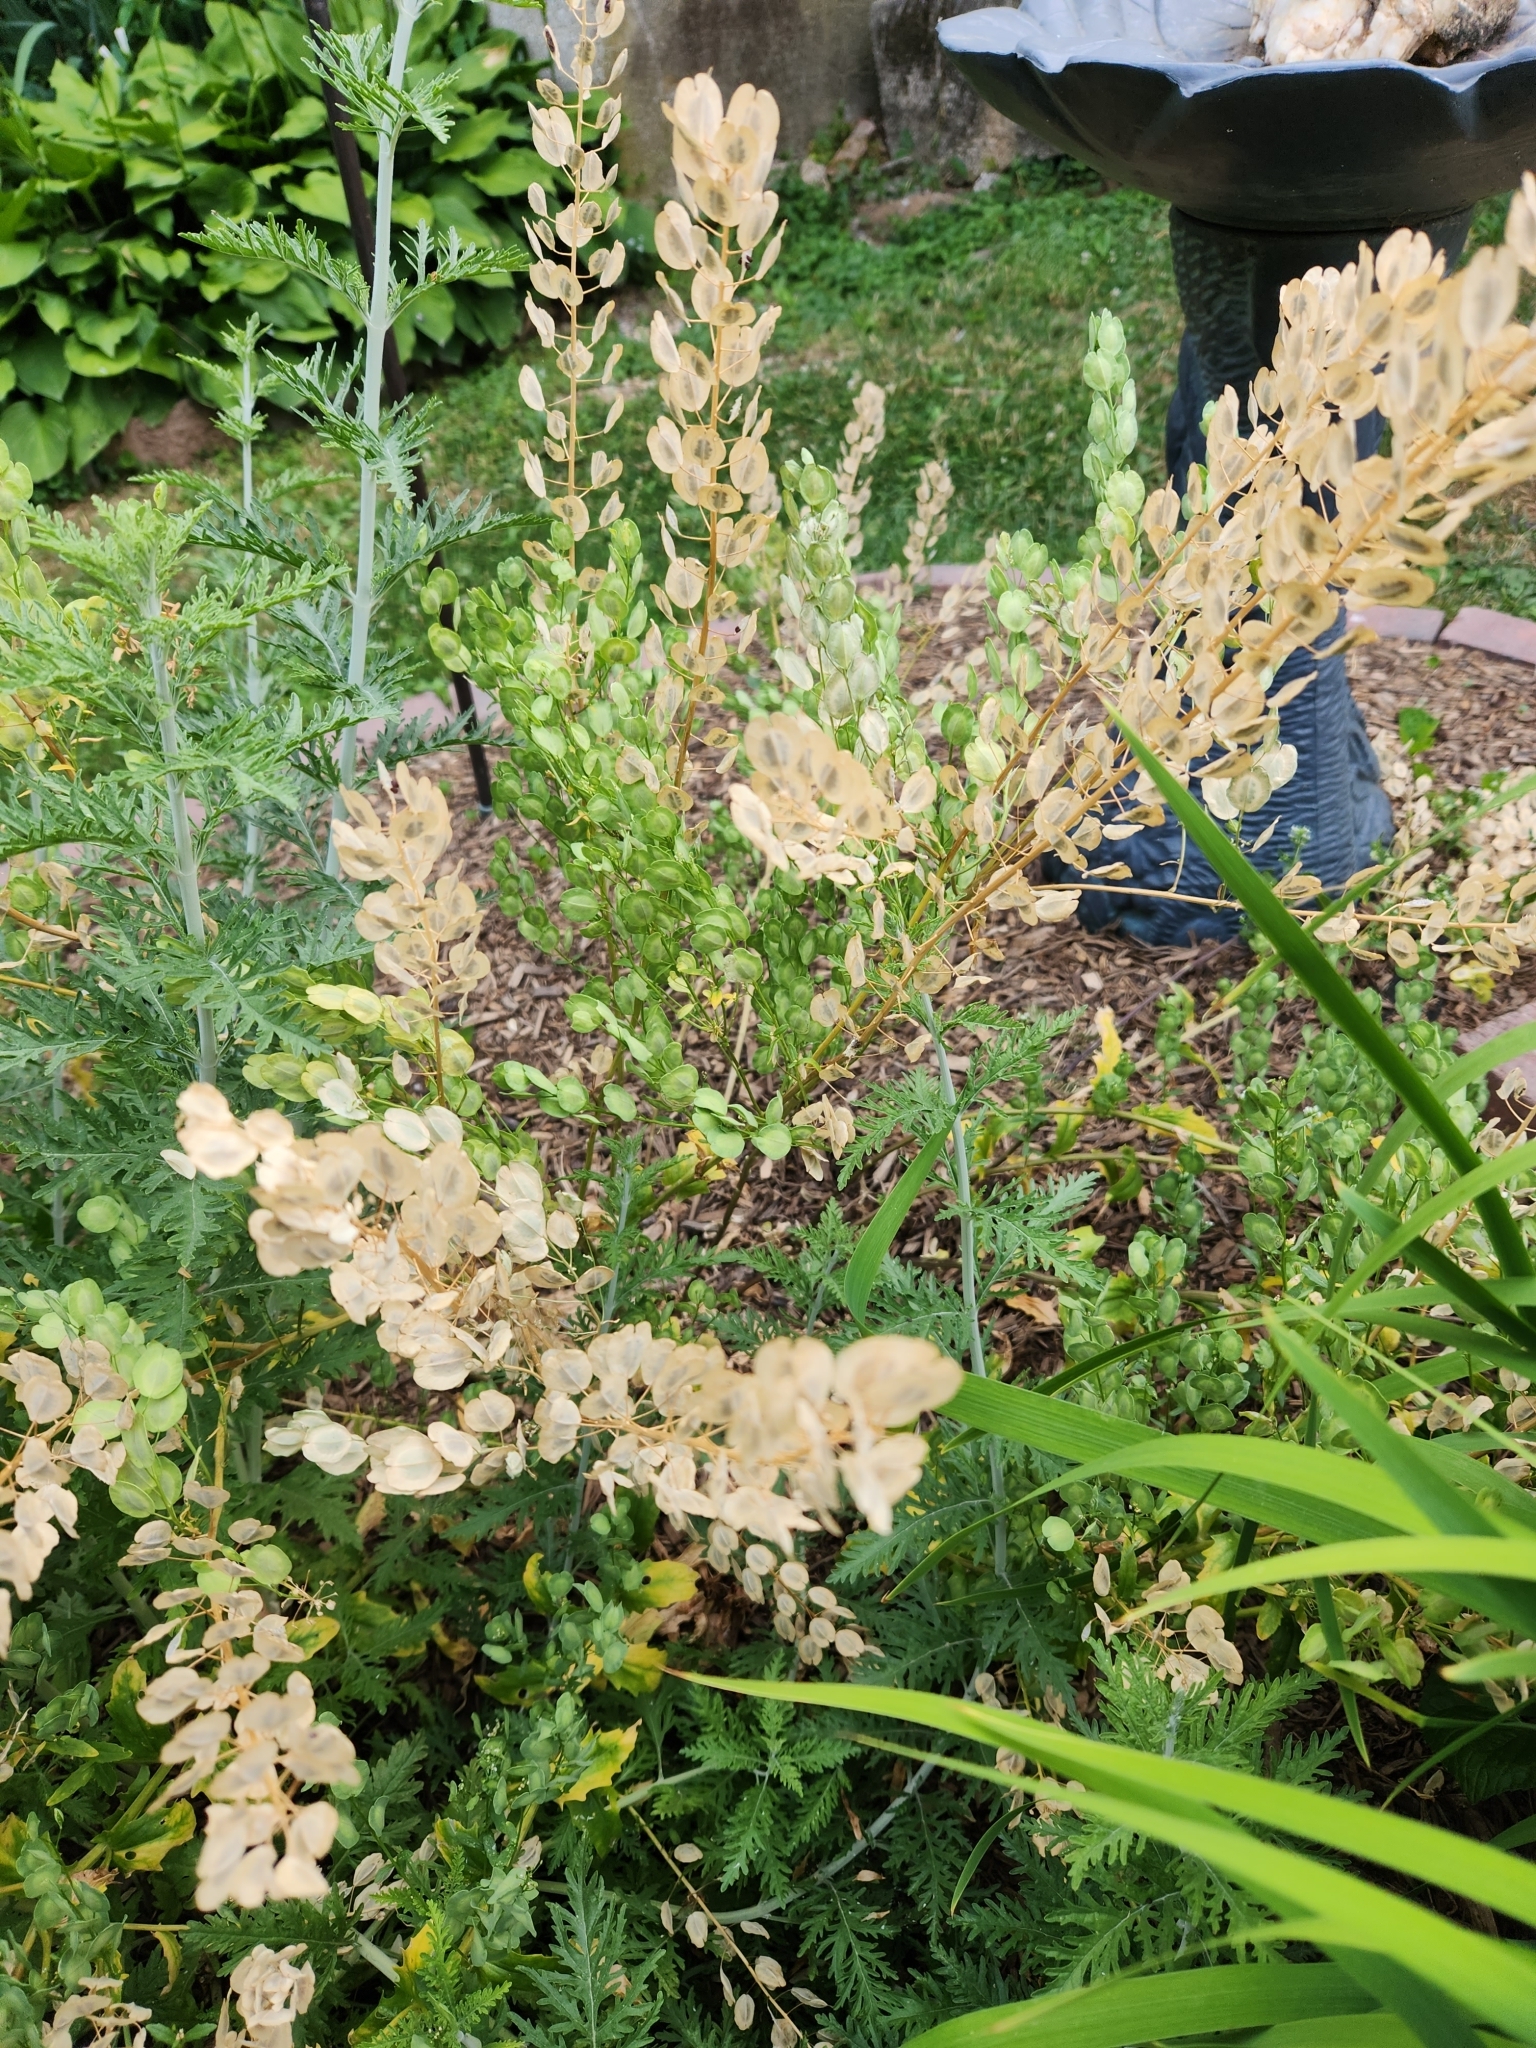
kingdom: Plantae
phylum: Tracheophyta
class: Magnoliopsida
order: Brassicales
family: Brassicaceae
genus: Thlaspi
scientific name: Thlaspi arvense
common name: Field pennycress
